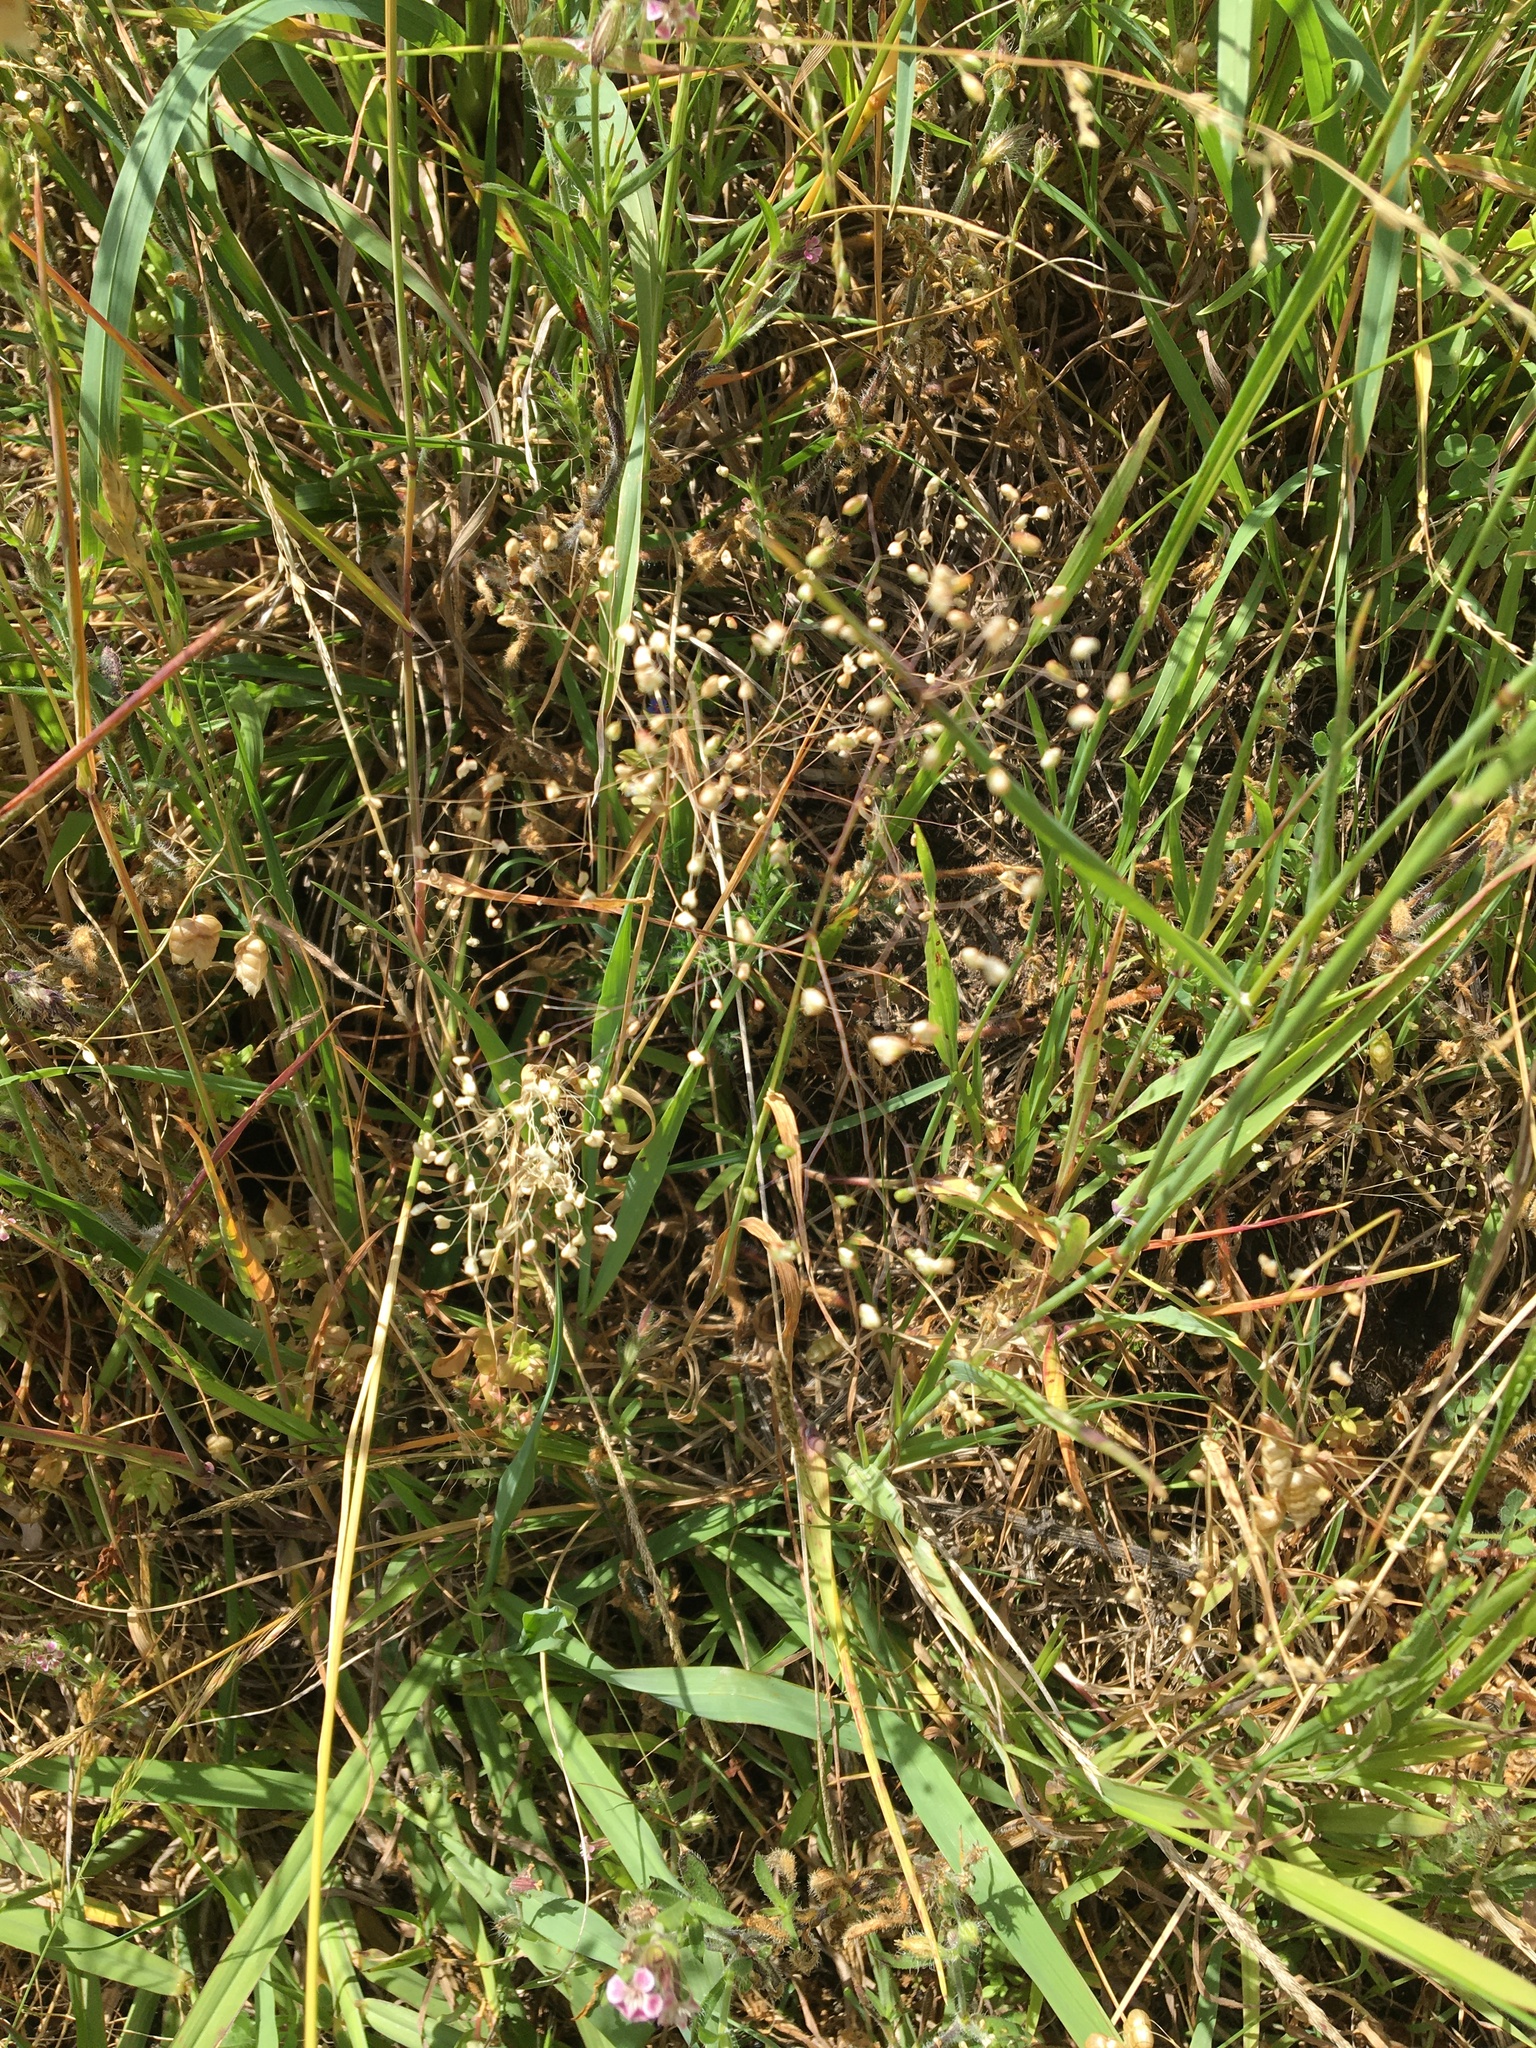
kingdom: Plantae
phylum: Tracheophyta
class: Liliopsida
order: Poales
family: Poaceae
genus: Briza
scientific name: Briza minor
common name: Lesser quaking-grass
